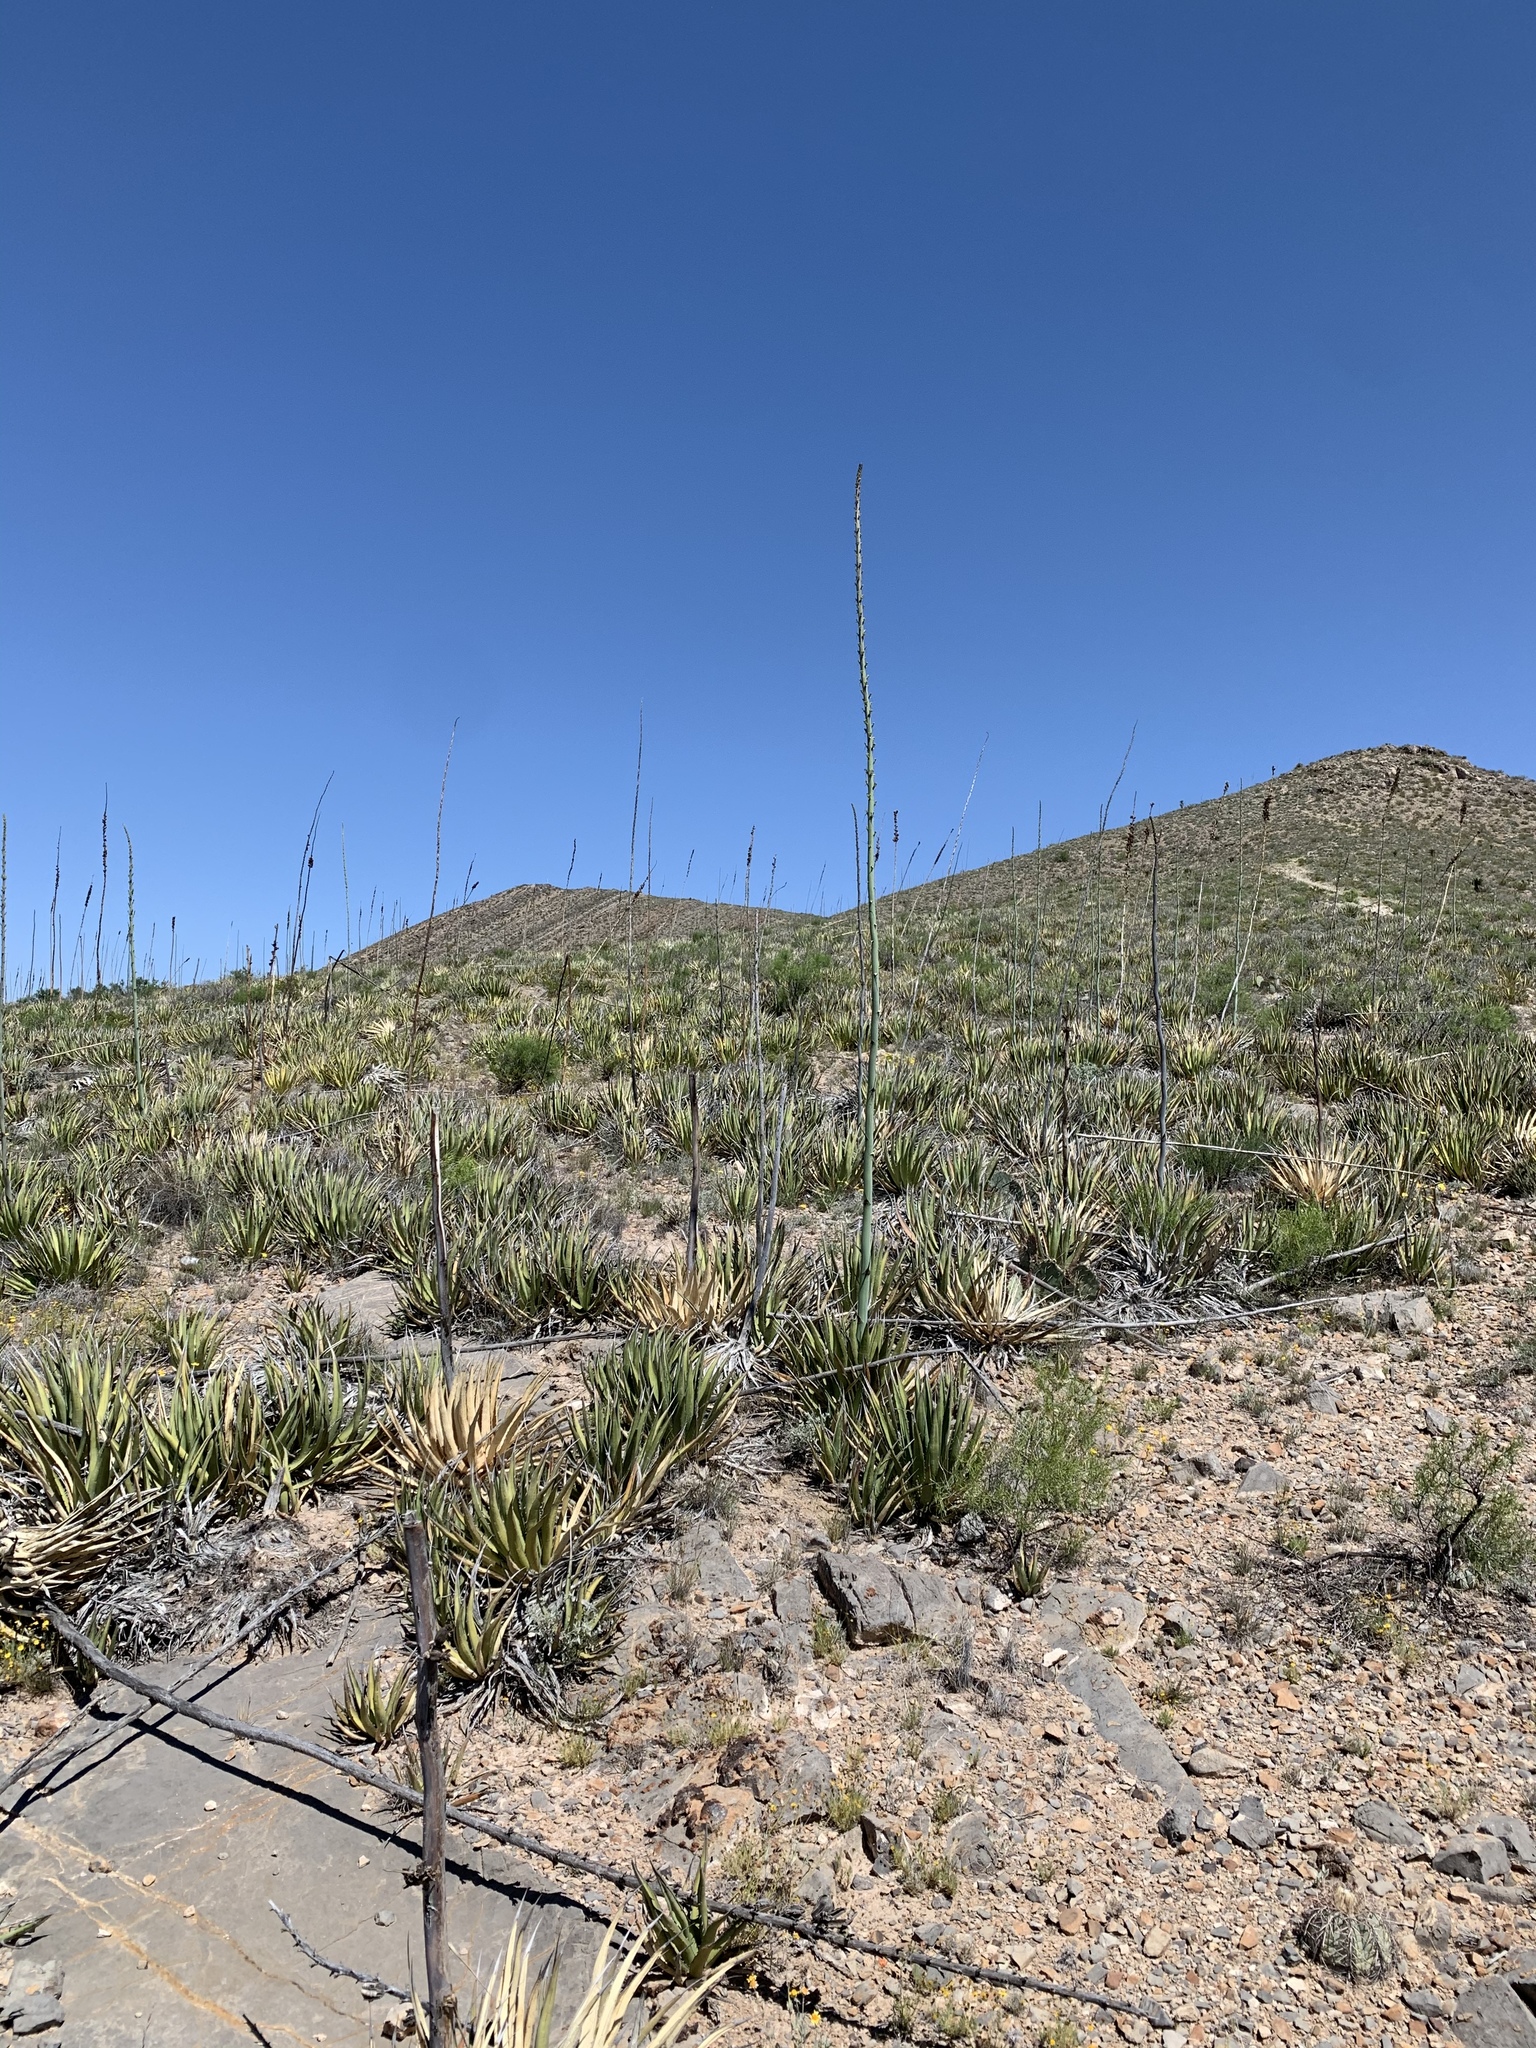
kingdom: Plantae
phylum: Tracheophyta
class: Liliopsida
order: Asparagales
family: Asparagaceae
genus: Agave
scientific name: Agave lechuguilla
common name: Lecheguilla agave
